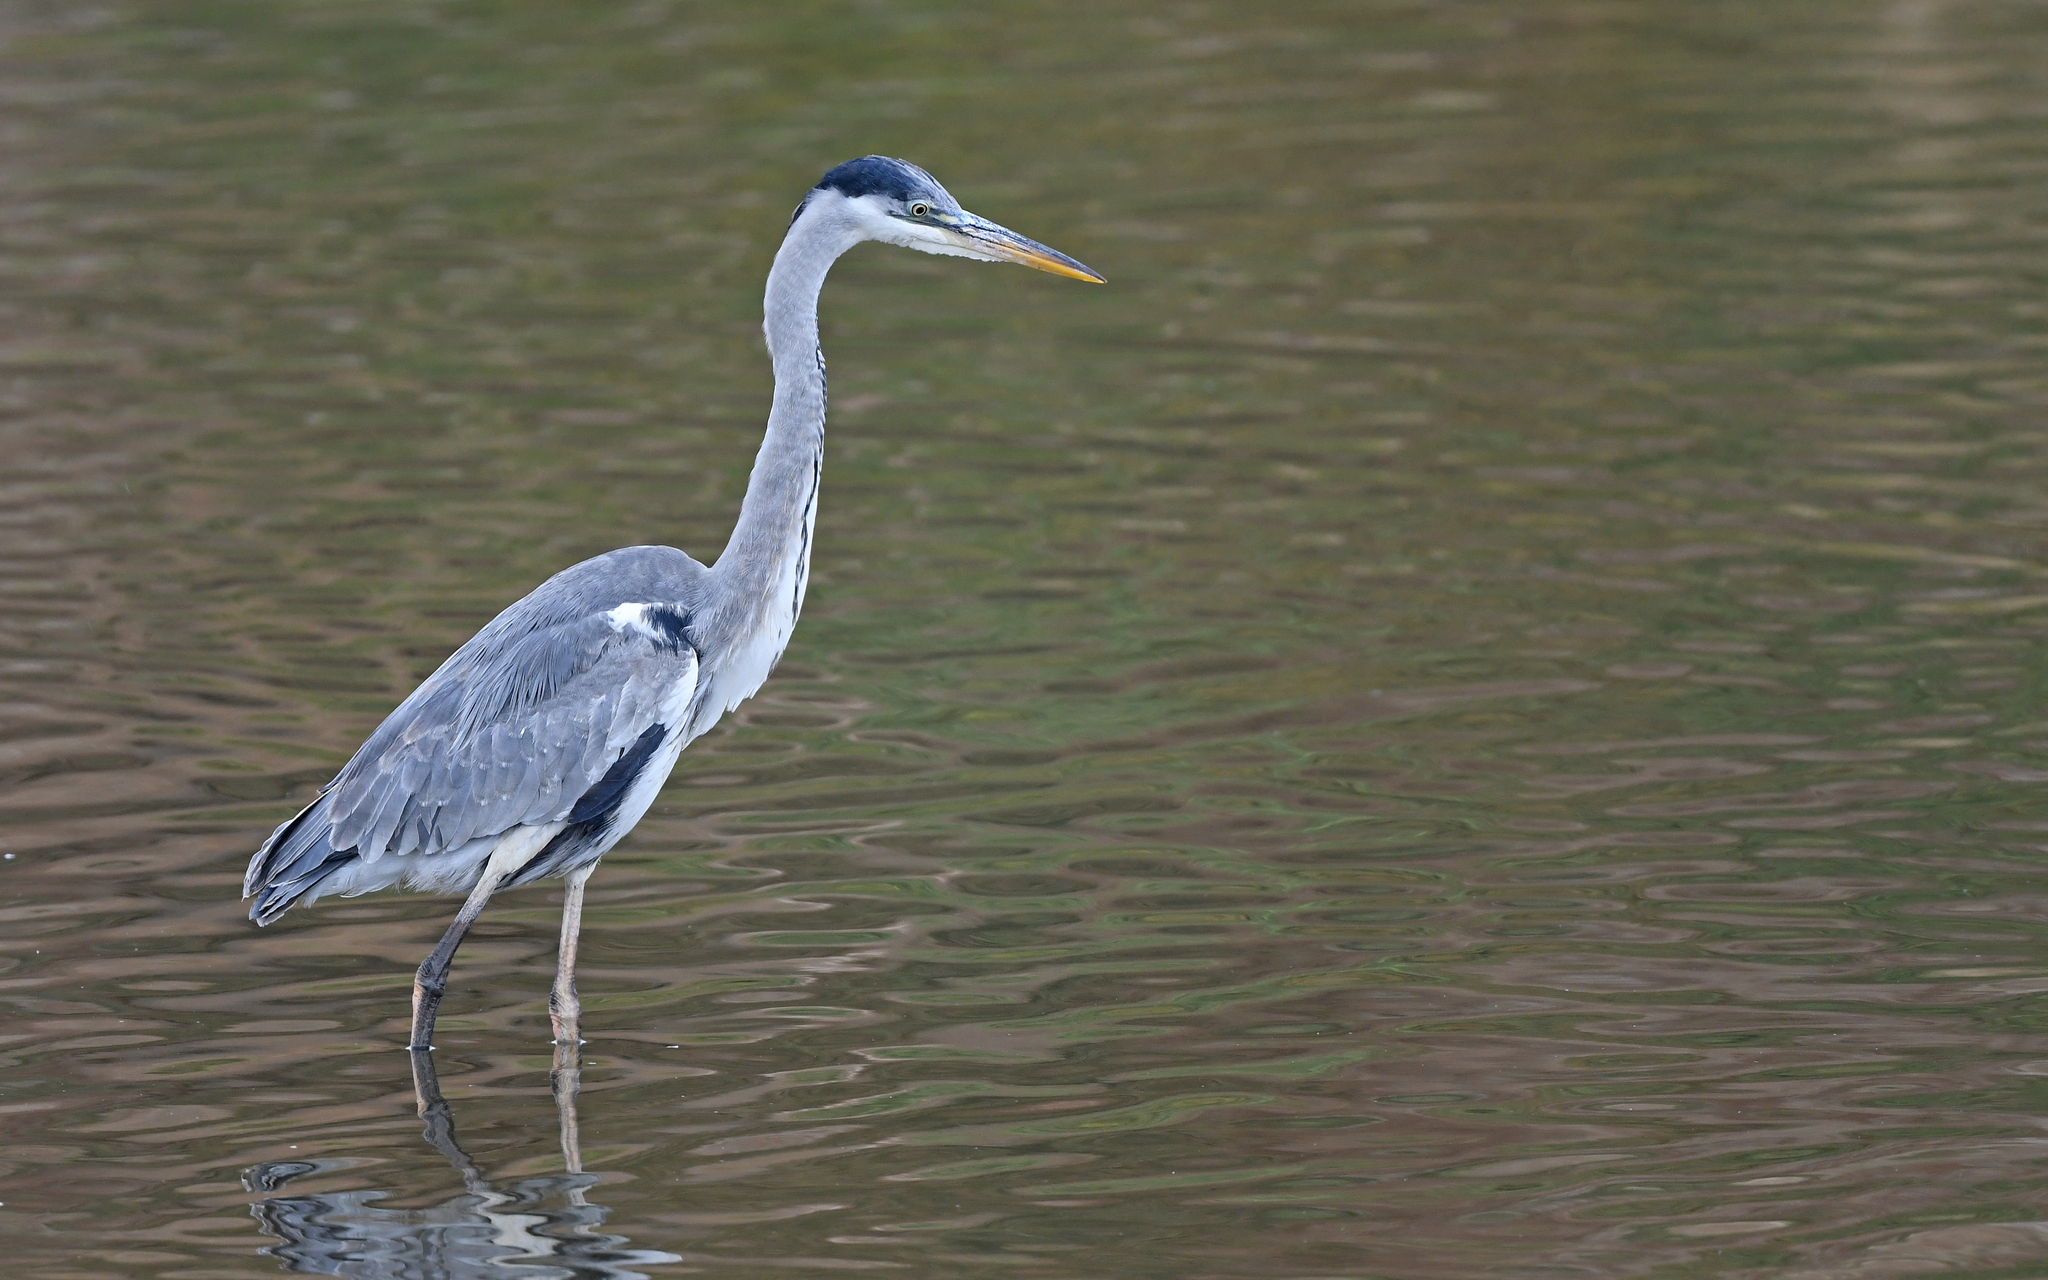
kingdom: Animalia
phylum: Chordata
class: Aves
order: Pelecaniformes
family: Ardeidae
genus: Ardea
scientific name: Ardea cocoi
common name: Cocoi heron
